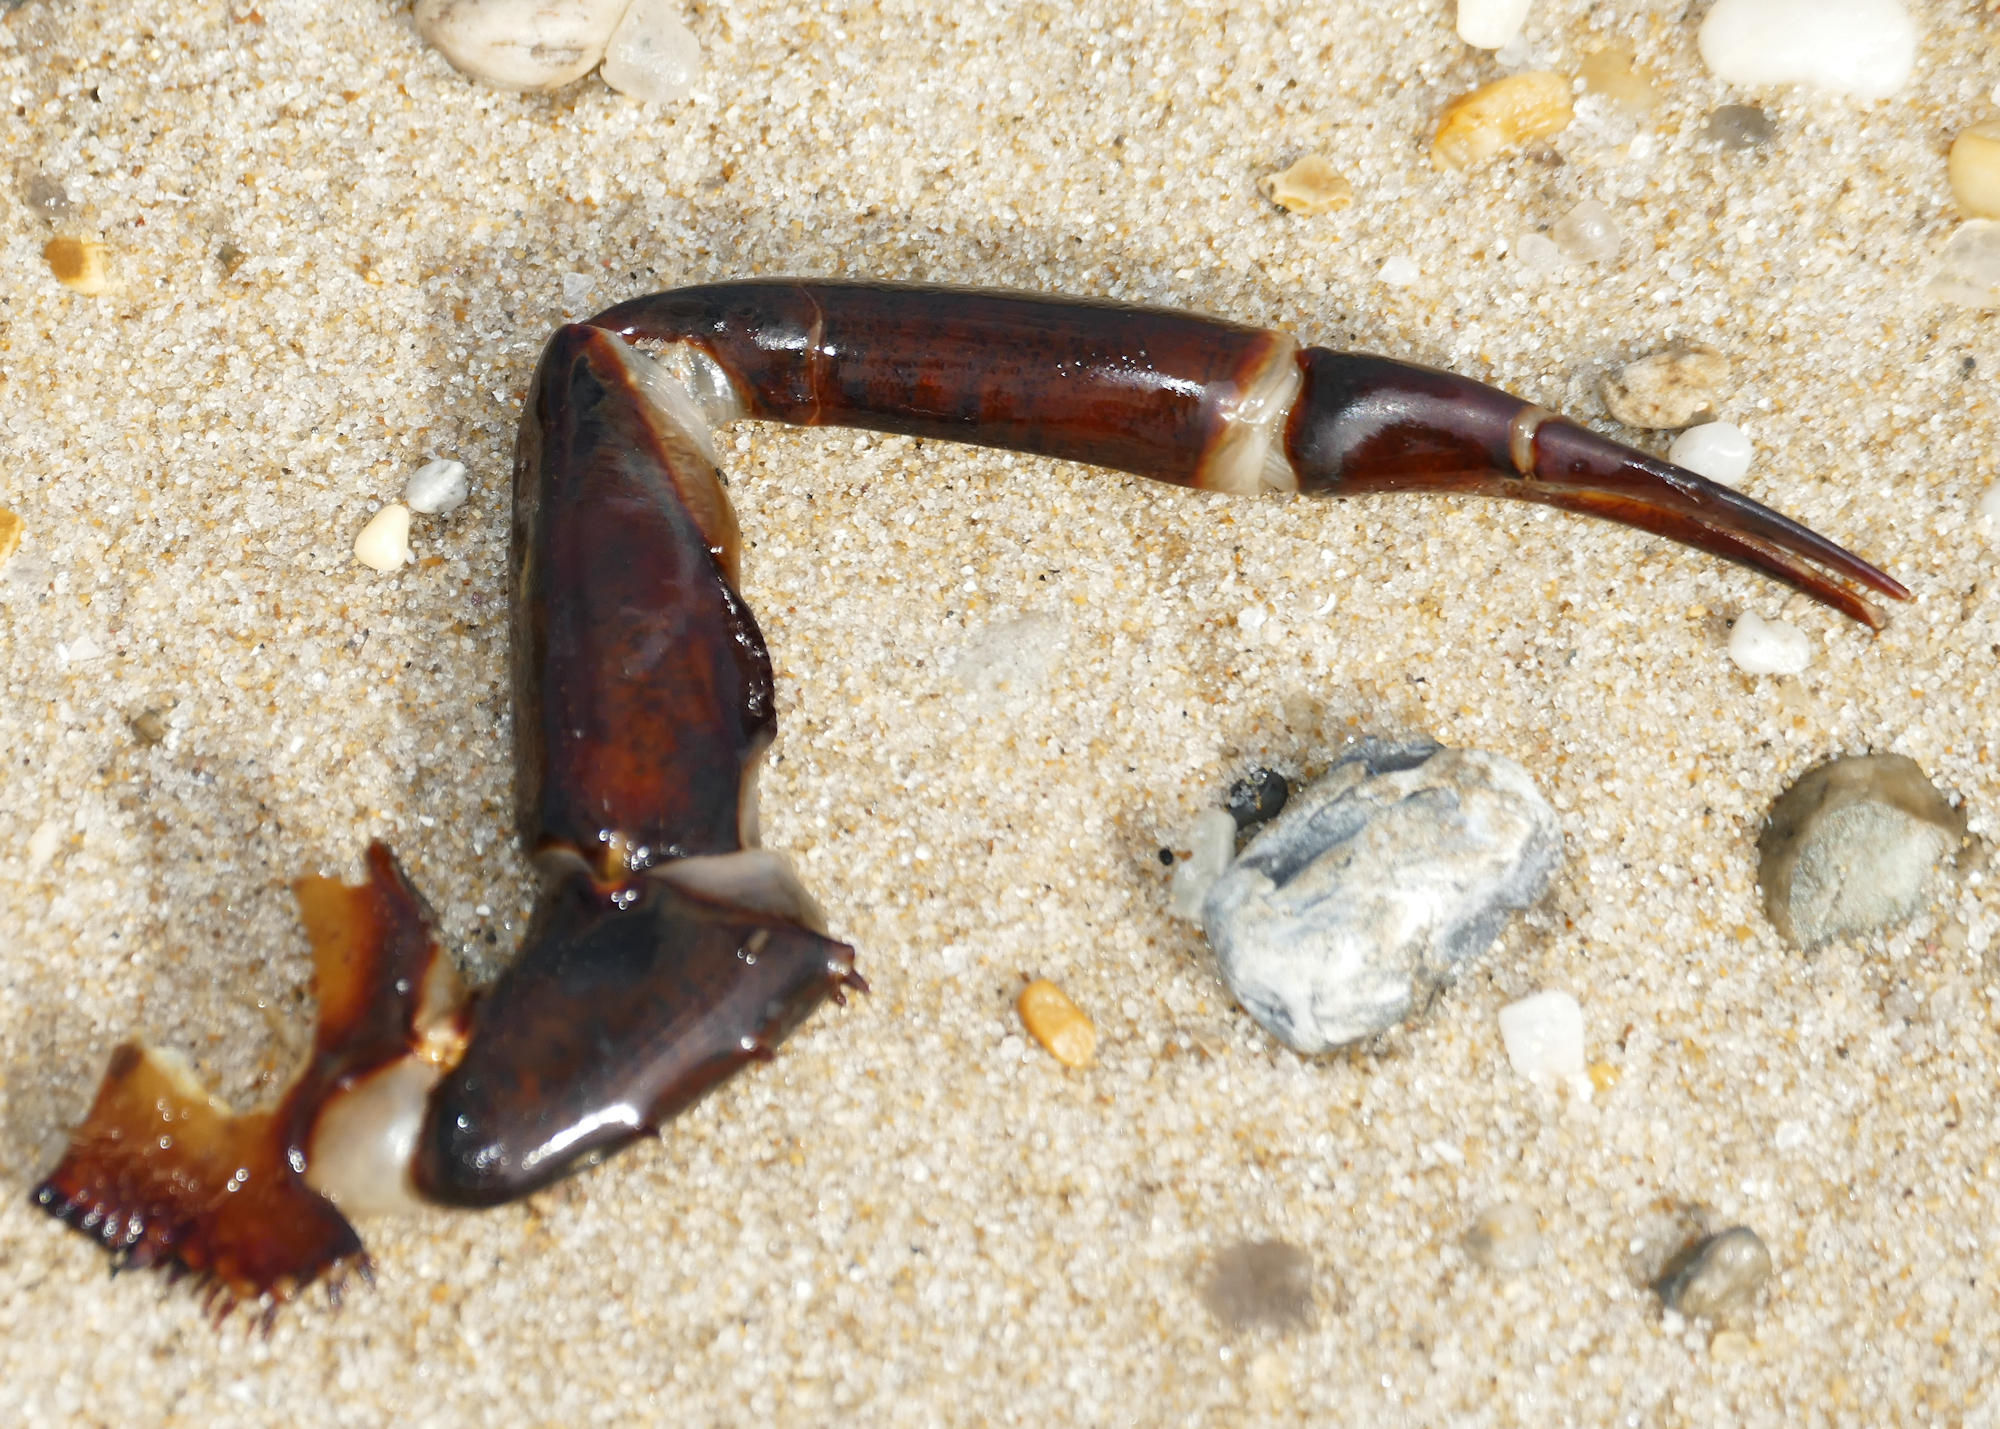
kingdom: Animalia
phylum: Arthropoda
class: Merostomata
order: Xiphosurida
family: Limulidae
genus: Limulus
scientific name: Limulus polyphemus
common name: Horseshoe crab
